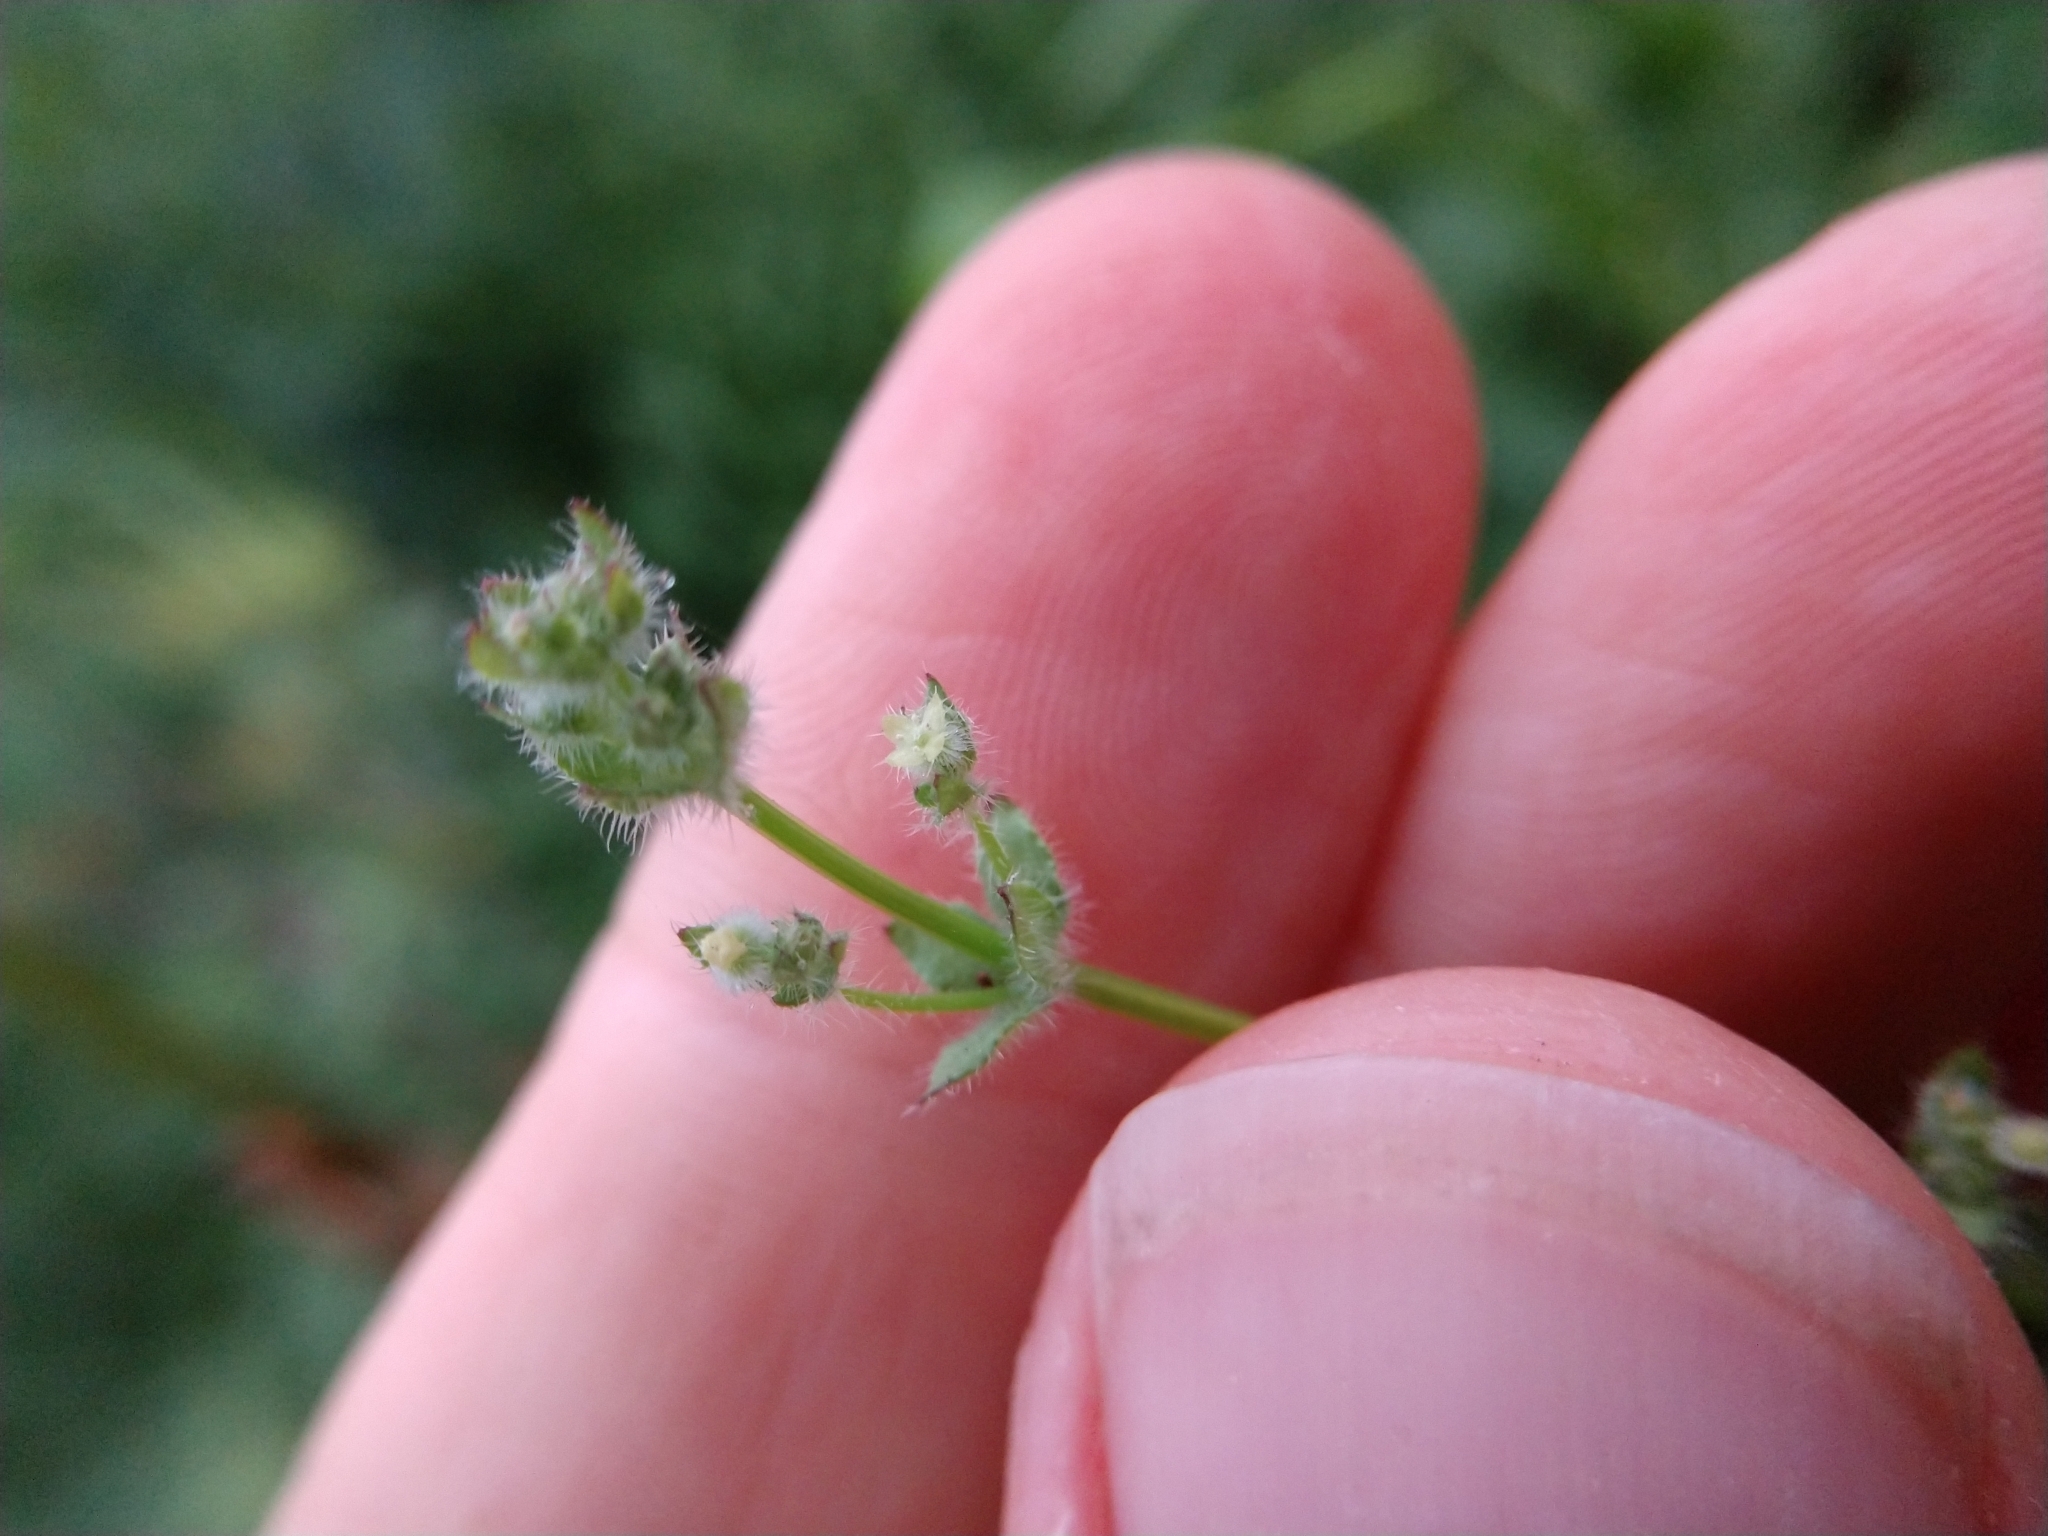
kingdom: Plantae
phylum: Tracheophyta
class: Magnoliopsida
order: Gentianales
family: Rubiaceae
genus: Galium
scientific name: Galium texense
